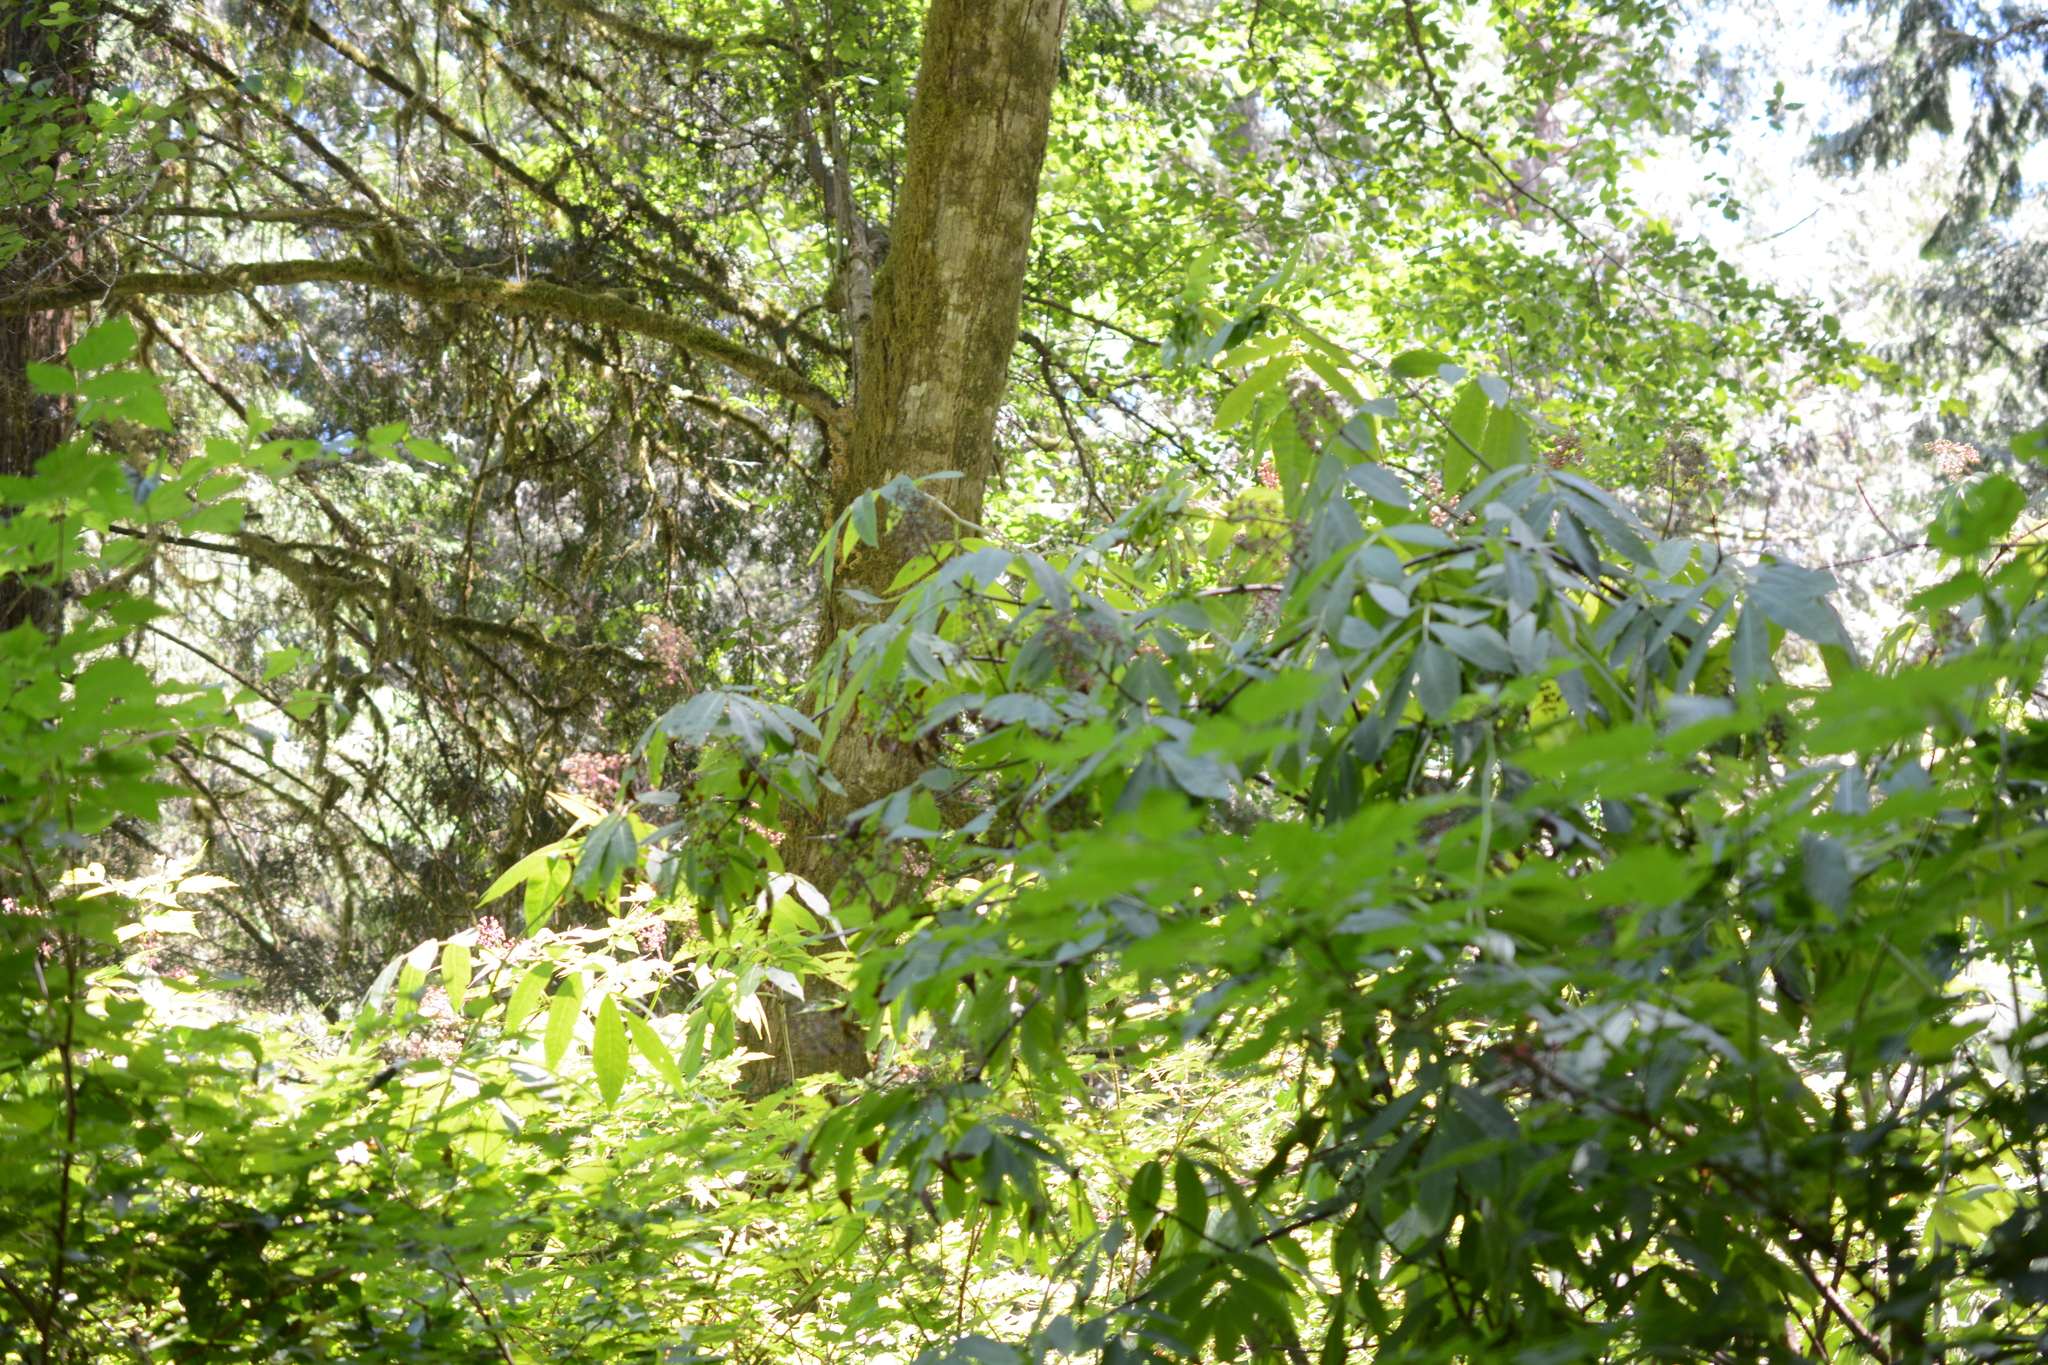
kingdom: Plantae
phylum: Tracheophyta
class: Magnoliopsida
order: Dipsacales
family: Viburnaceae
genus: Sambucus
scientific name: Sambucus racemosa
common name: Red-berried elder
